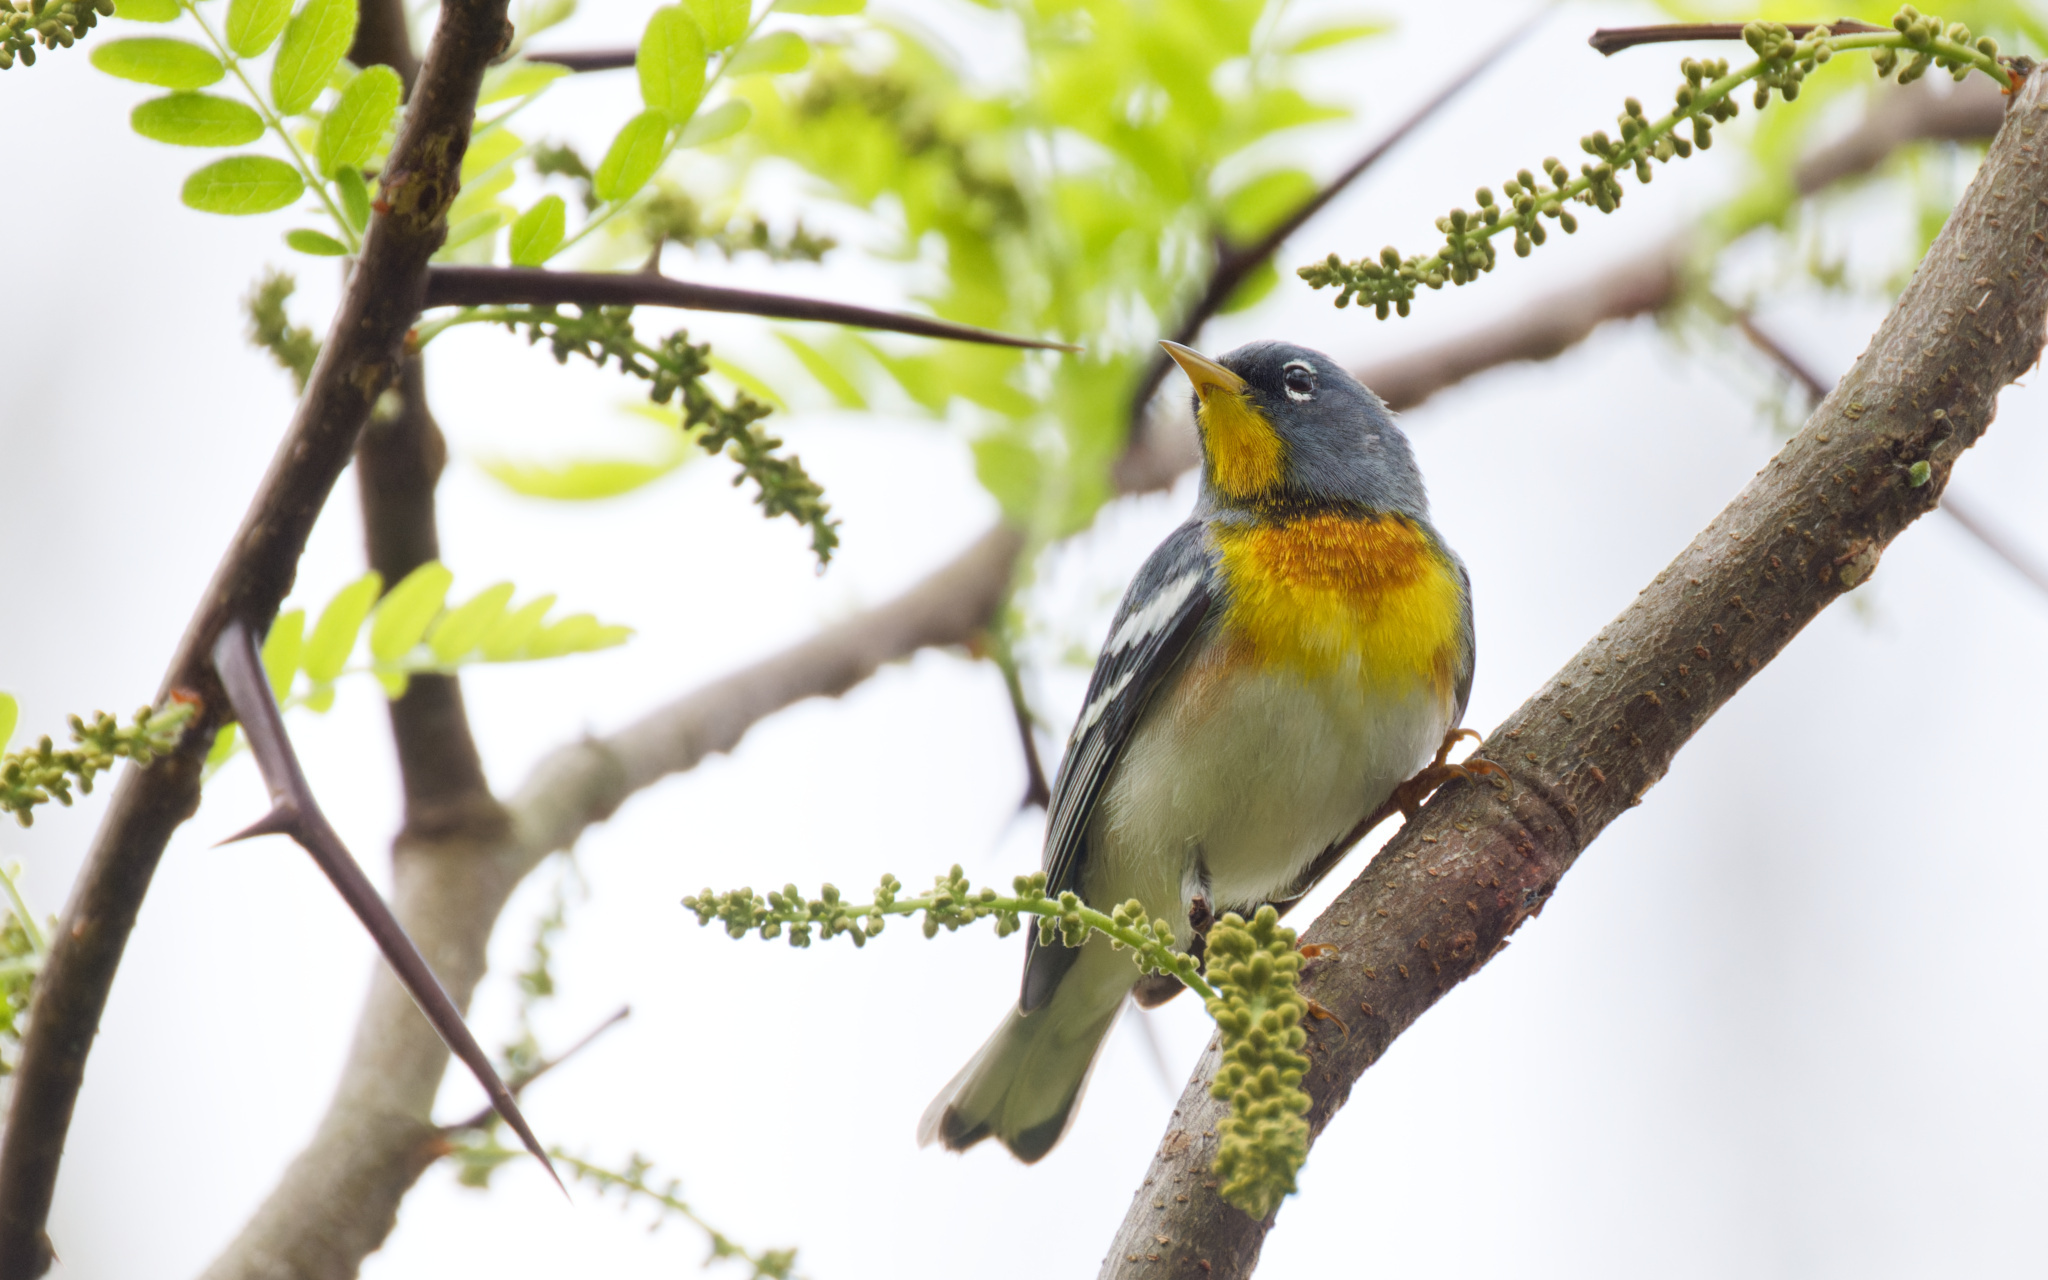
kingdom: Animalia
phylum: Chordata
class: Aves
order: Passeriformes
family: Parulidae
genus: Setophaga
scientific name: Setophaga americana
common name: Northern parula
